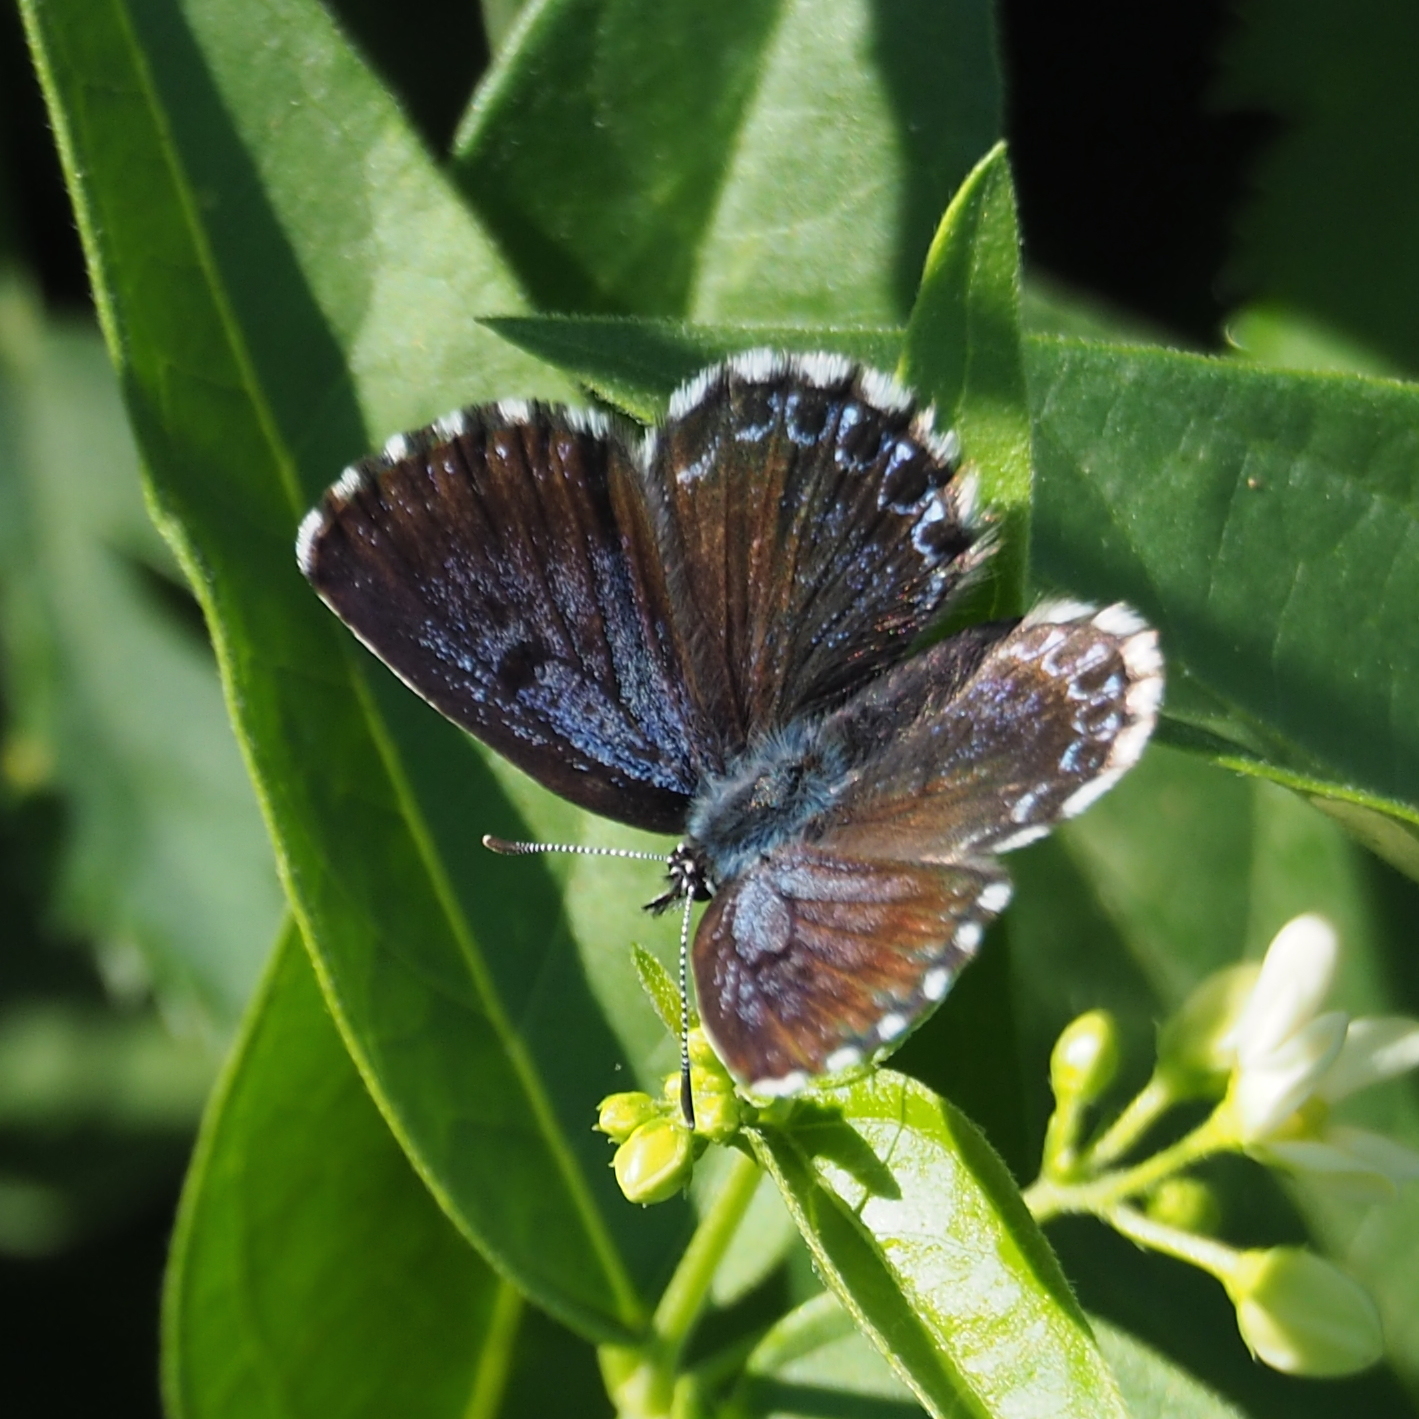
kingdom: Animalia
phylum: Arthropoda
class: Insecta
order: Lepidoptera
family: Lycaenidae
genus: Scolitantides
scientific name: Scolitantides orion
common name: Chequered blue
